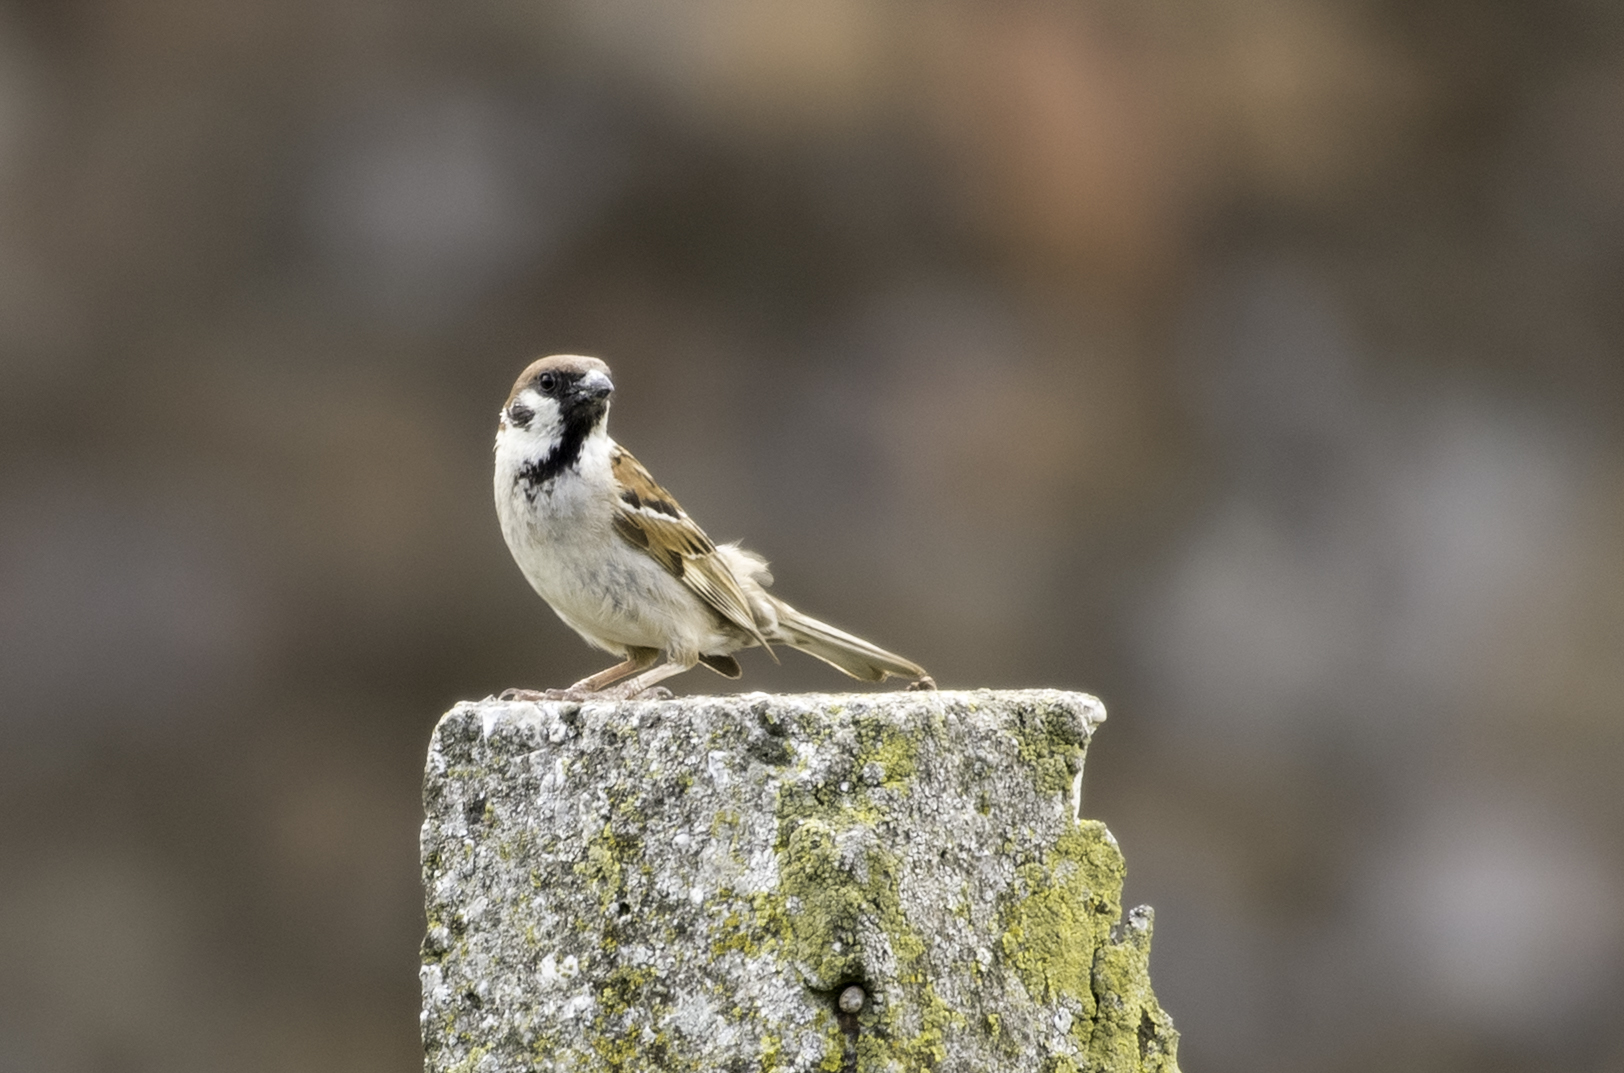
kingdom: Animalia
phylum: Chordata
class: Aves
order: Passeriformes
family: Passeridae
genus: Passer
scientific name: Passer montanus
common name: Eurasian tree sparrow
